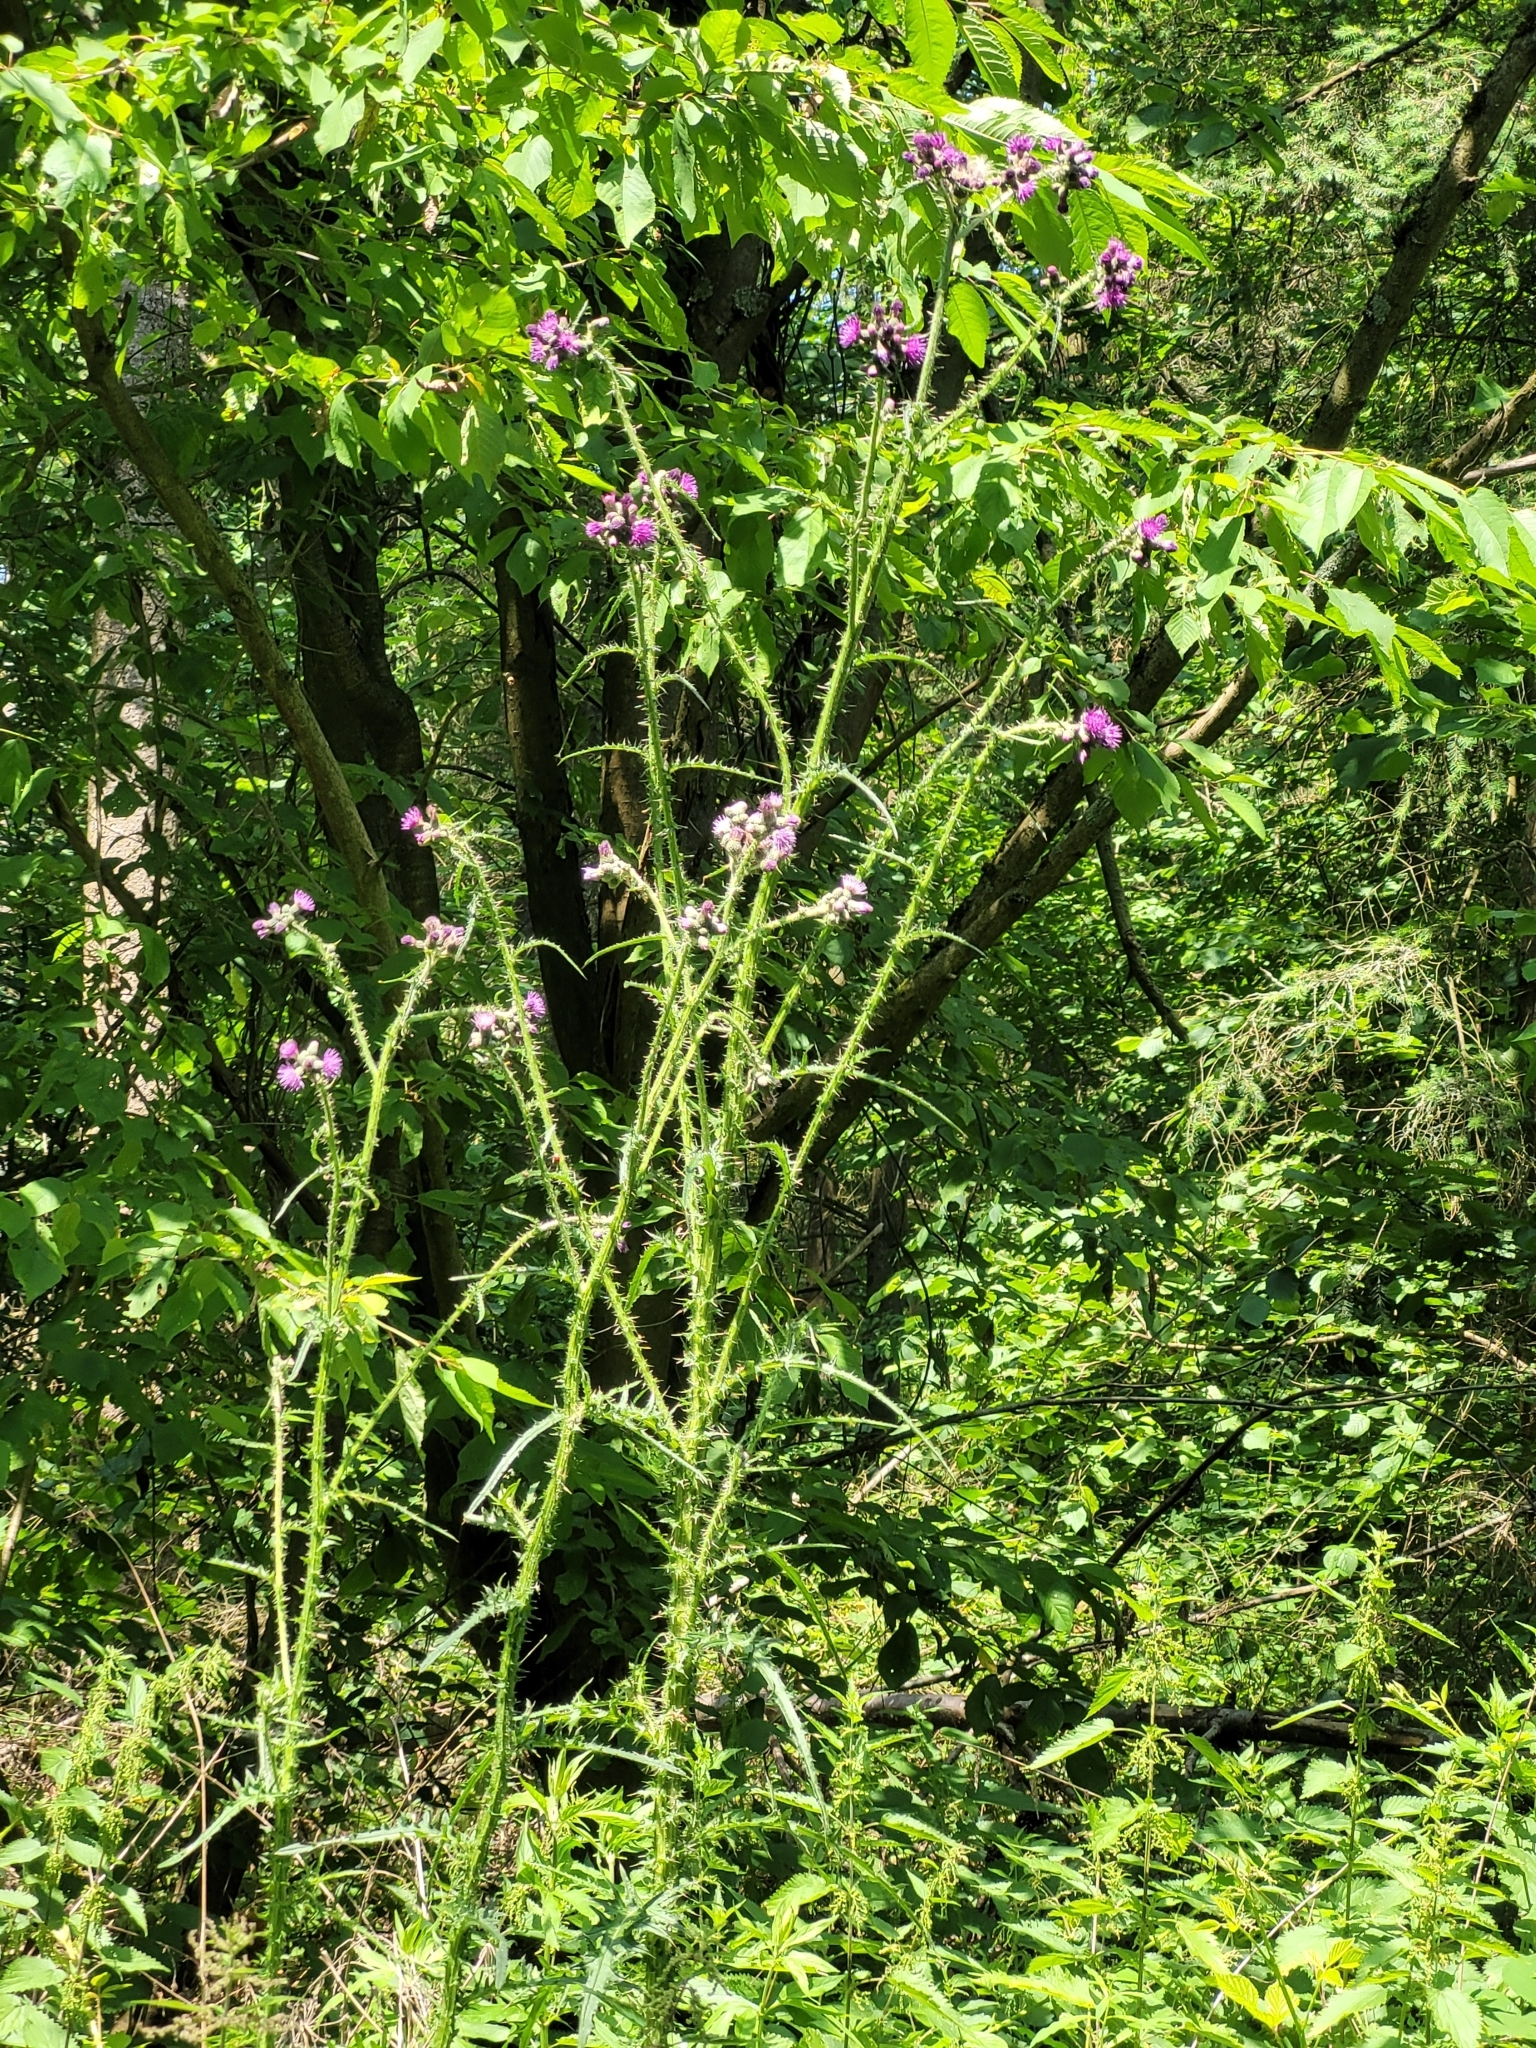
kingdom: Plantae
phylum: Tracheophyta
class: Magnoliopsida
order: Asterales
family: Asteraceae
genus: Cirsium
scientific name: Cirsium palustre
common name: Marsh thistle
